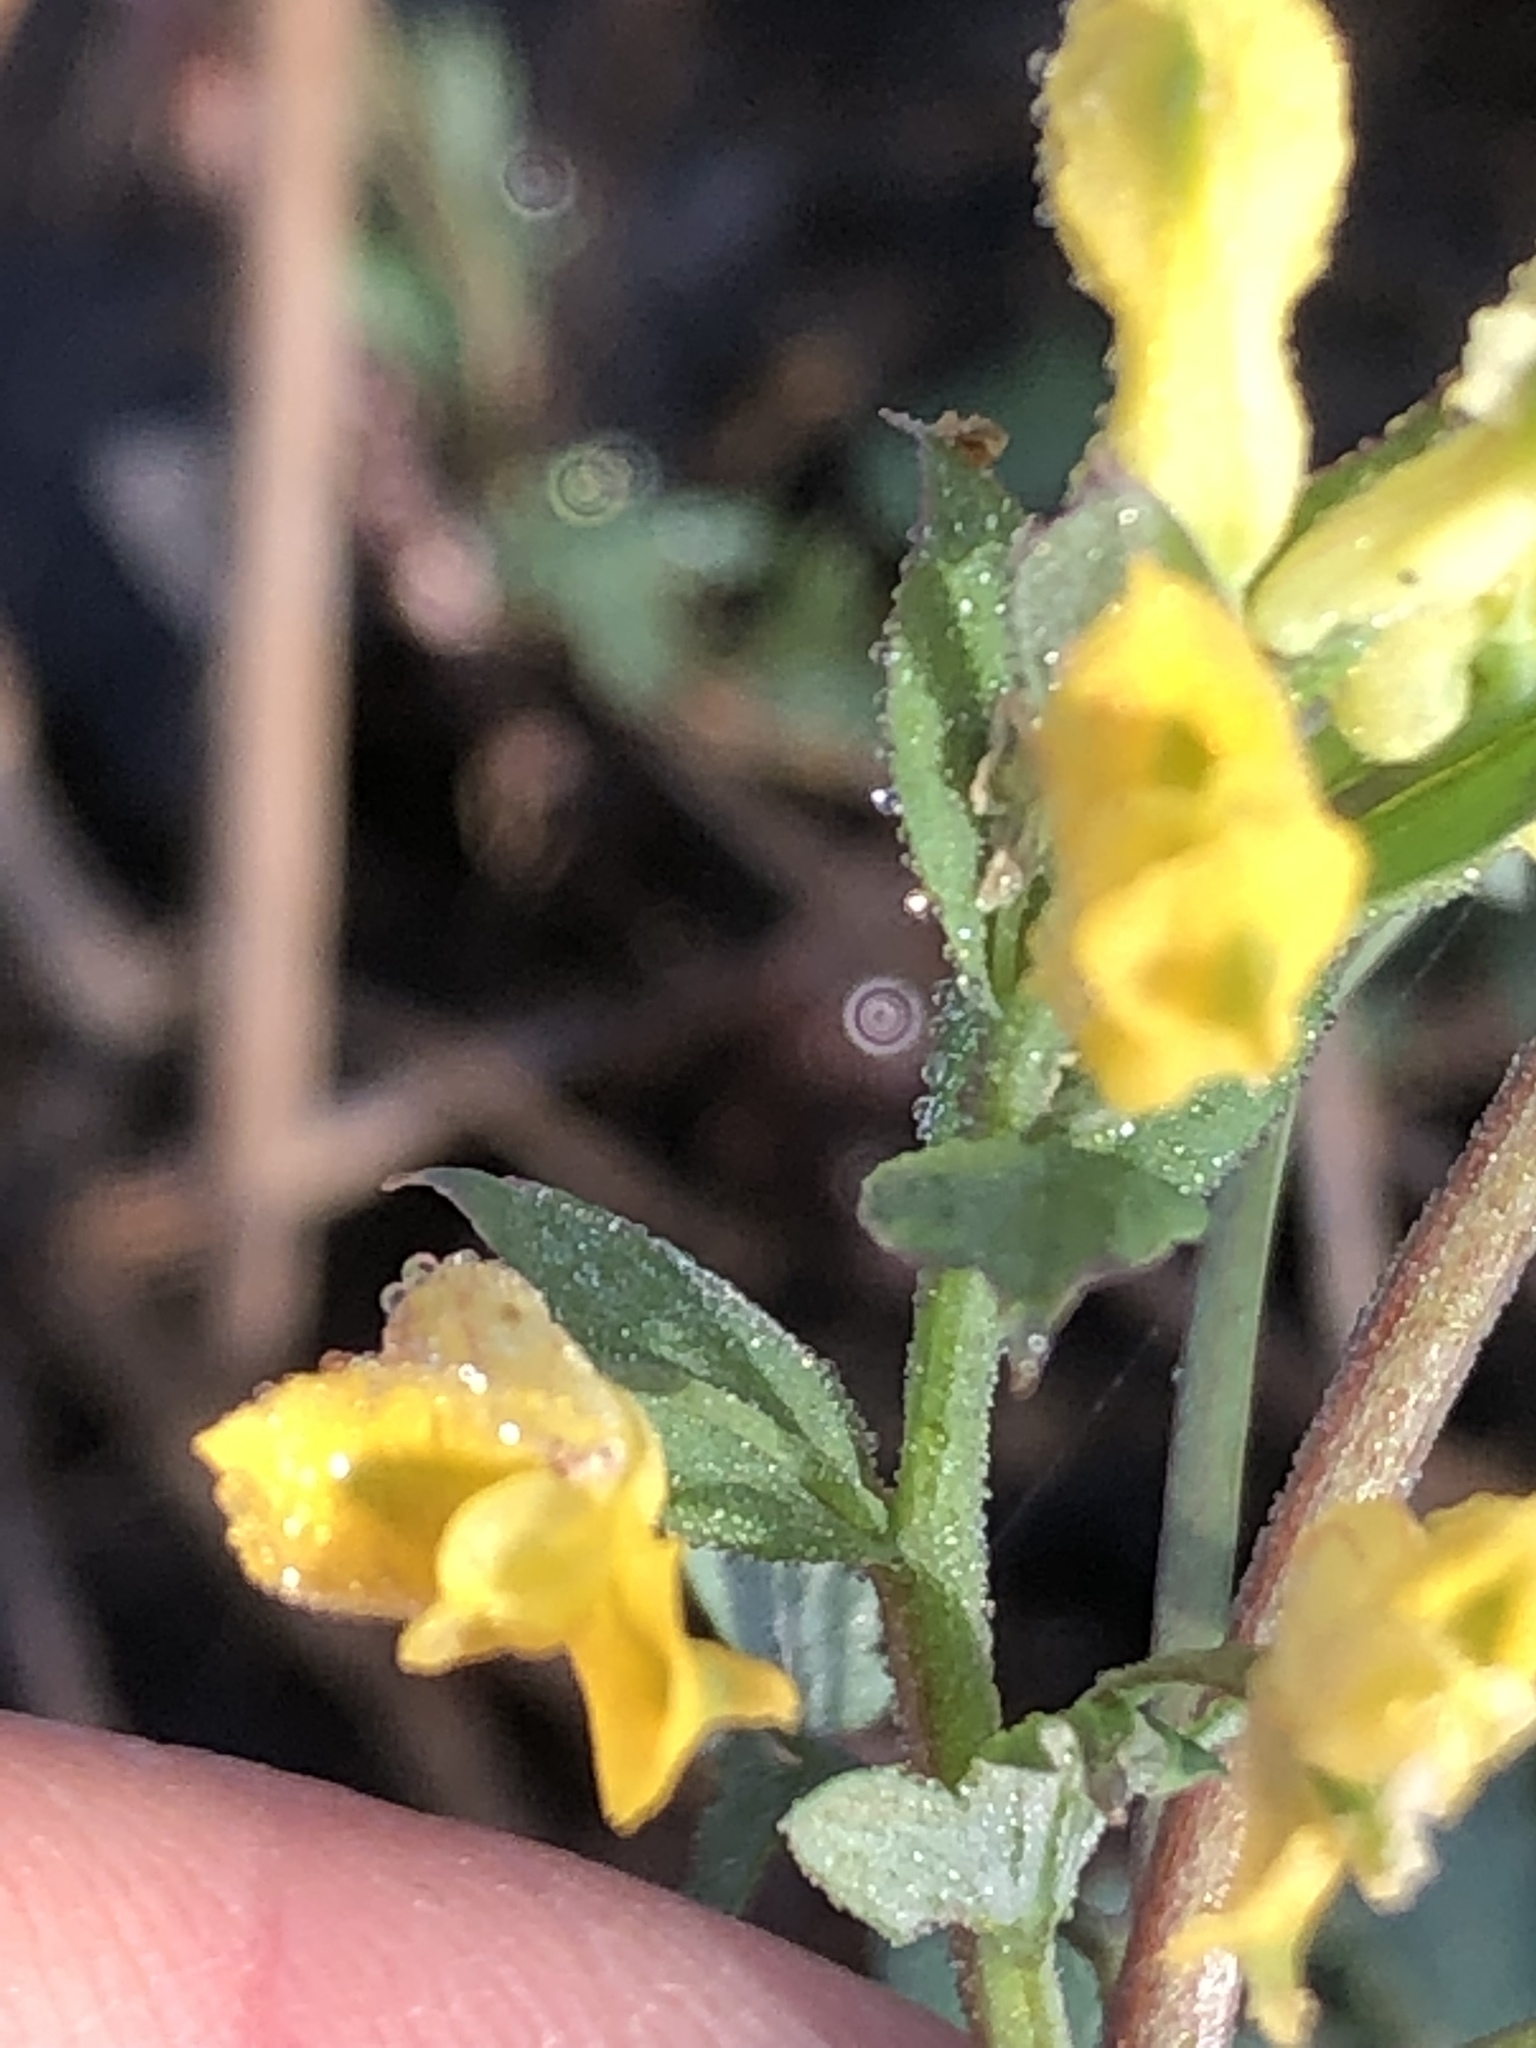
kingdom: Plantae
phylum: Tracheophyta
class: Magnoliopsida
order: Ranunculales
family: Papaveraceae
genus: Corydalis
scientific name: Corydalis flavula
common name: Yellow corydalis
